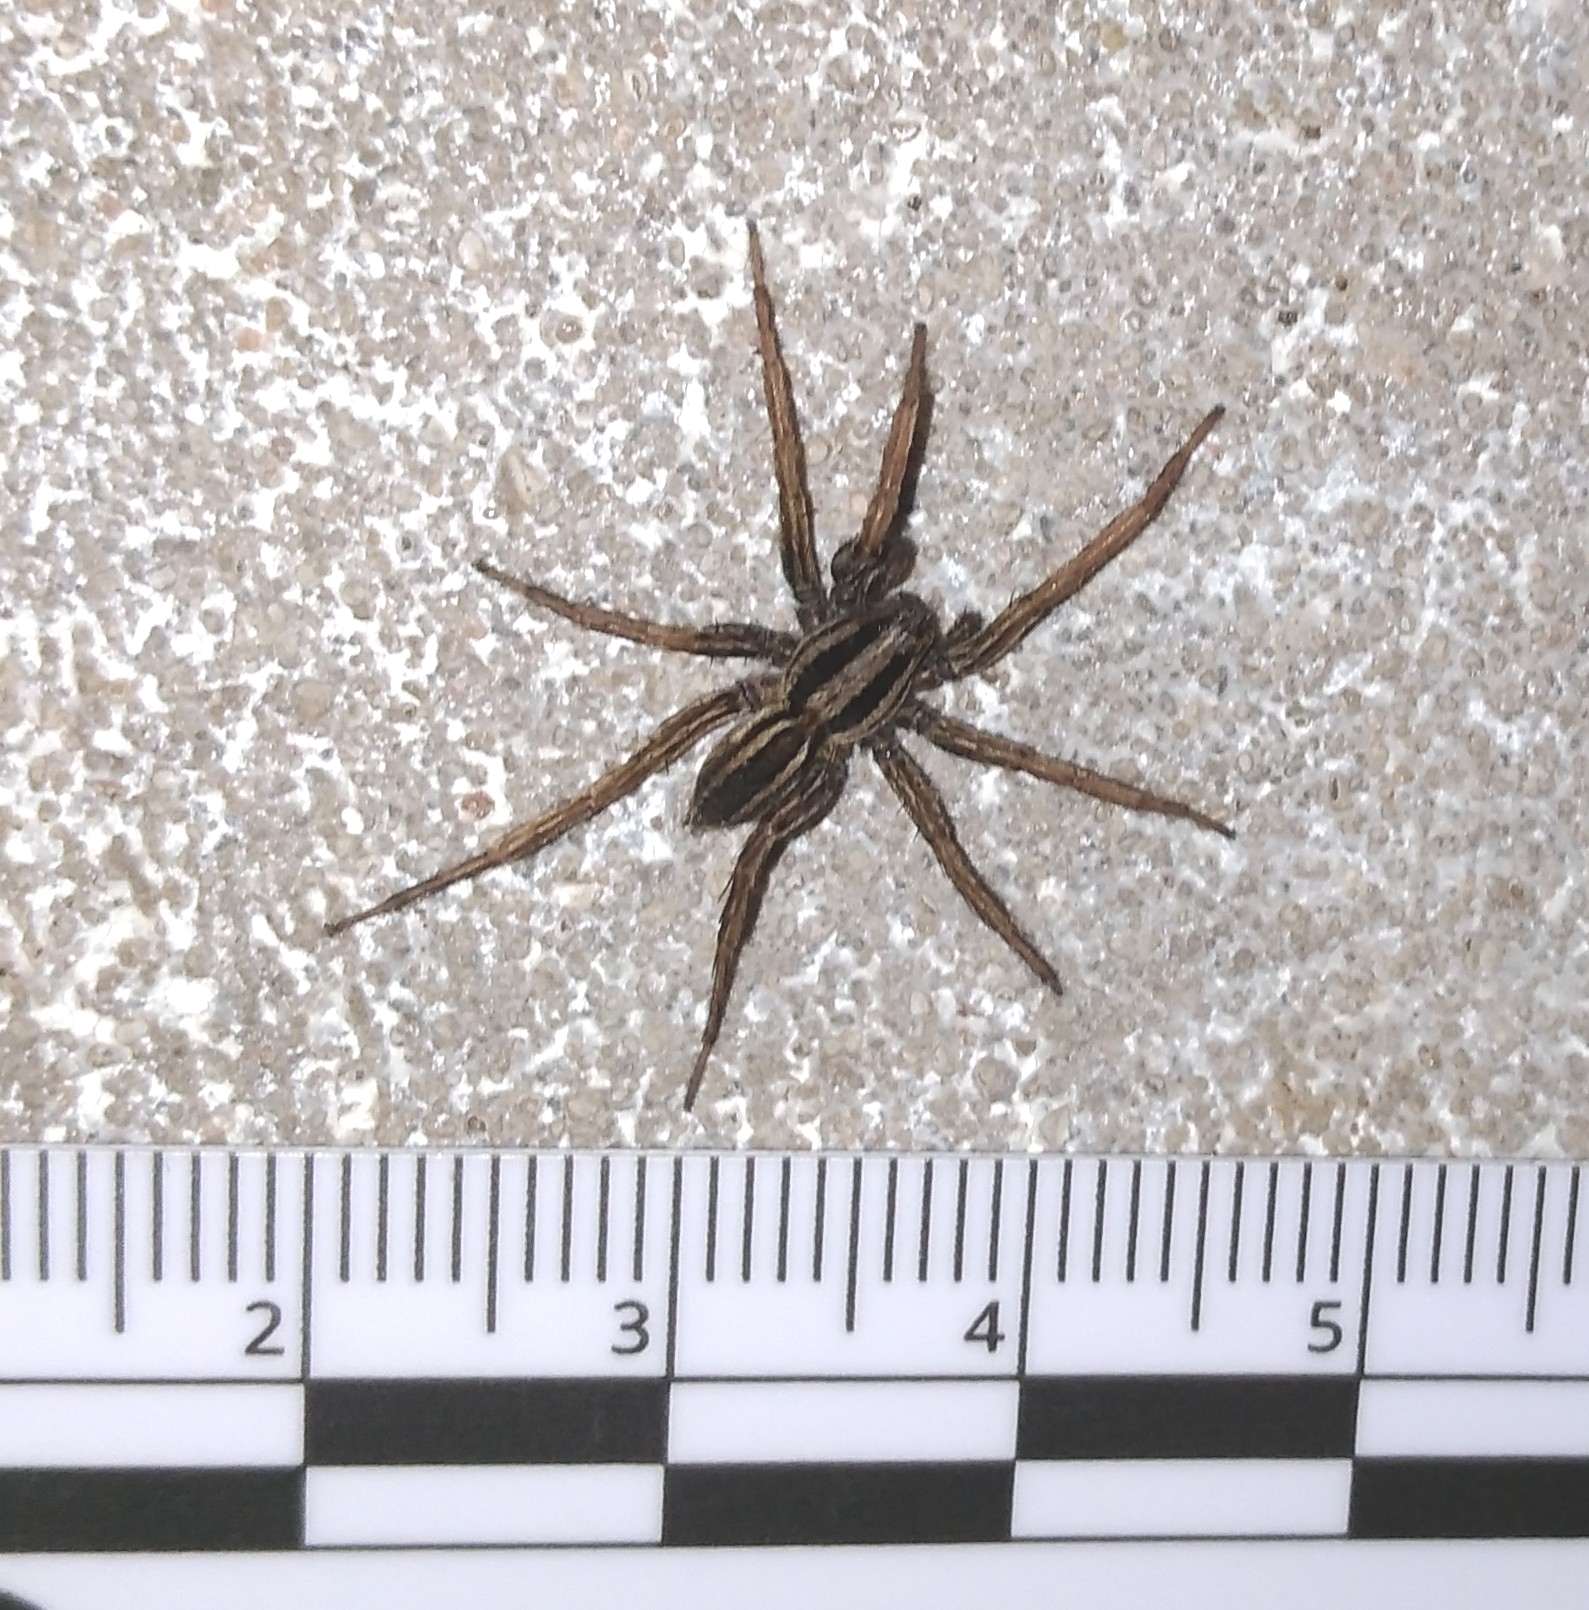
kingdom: Animalia
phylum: Arthropoda
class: Arachnida
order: Araneae
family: Lycosidae
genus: Hogna
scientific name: Hogna bivittata
